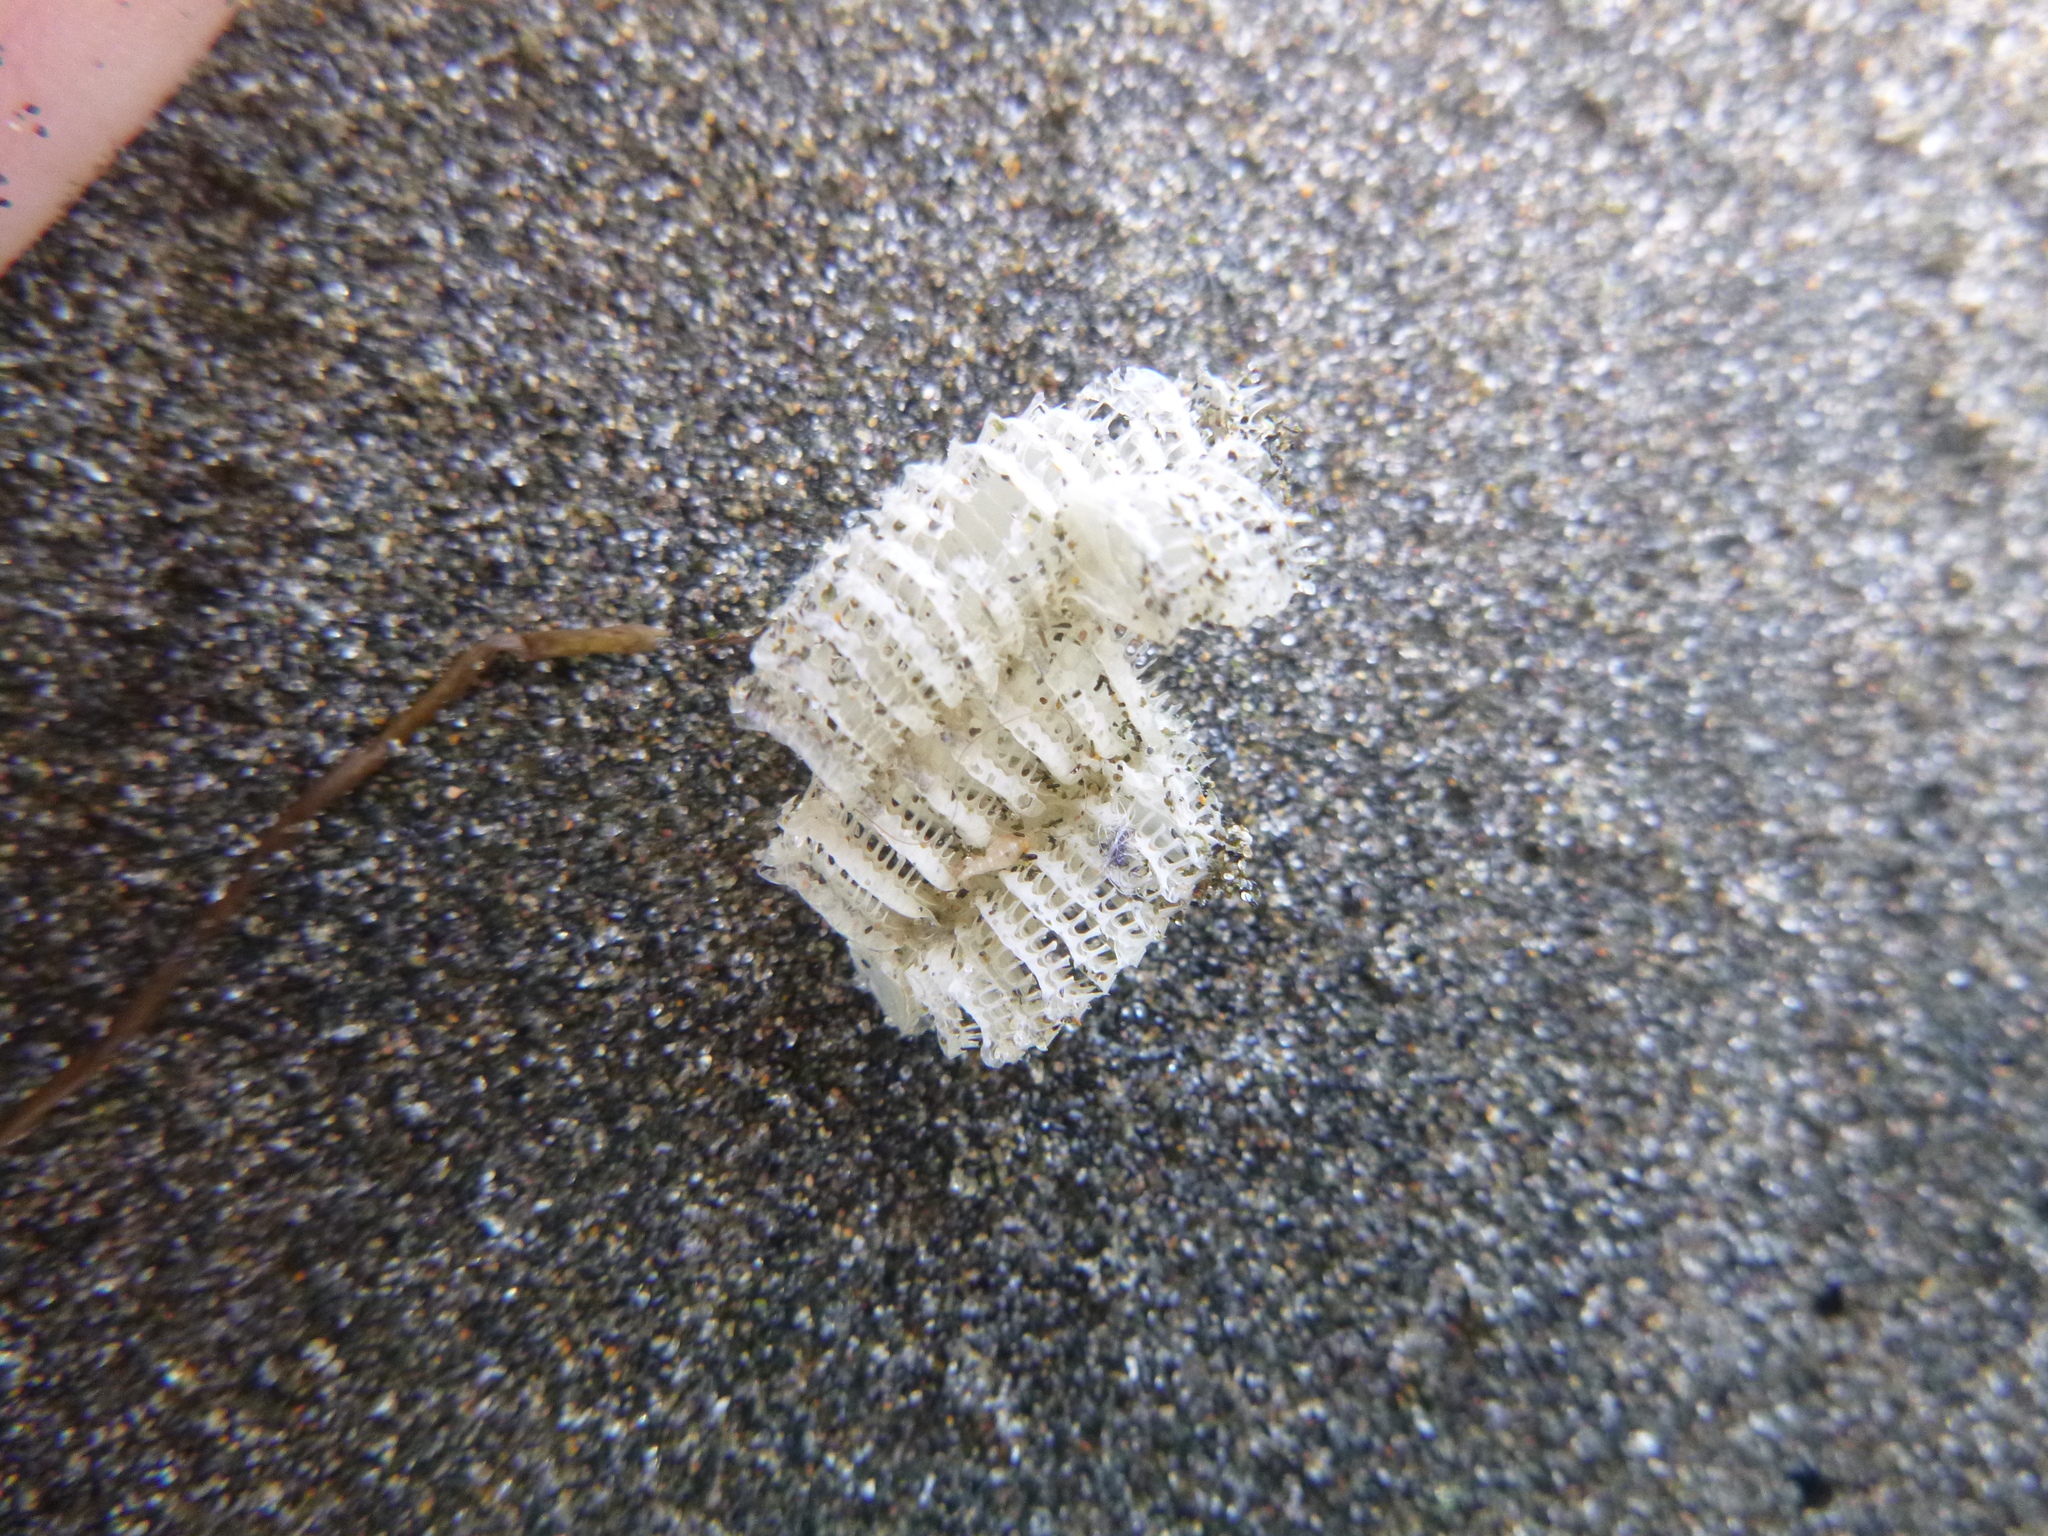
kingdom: Animalia
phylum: Mollusca
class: Gastropoda
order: Neogastropoda
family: Muricidae
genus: Poirieria
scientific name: Poirieria zelandica
